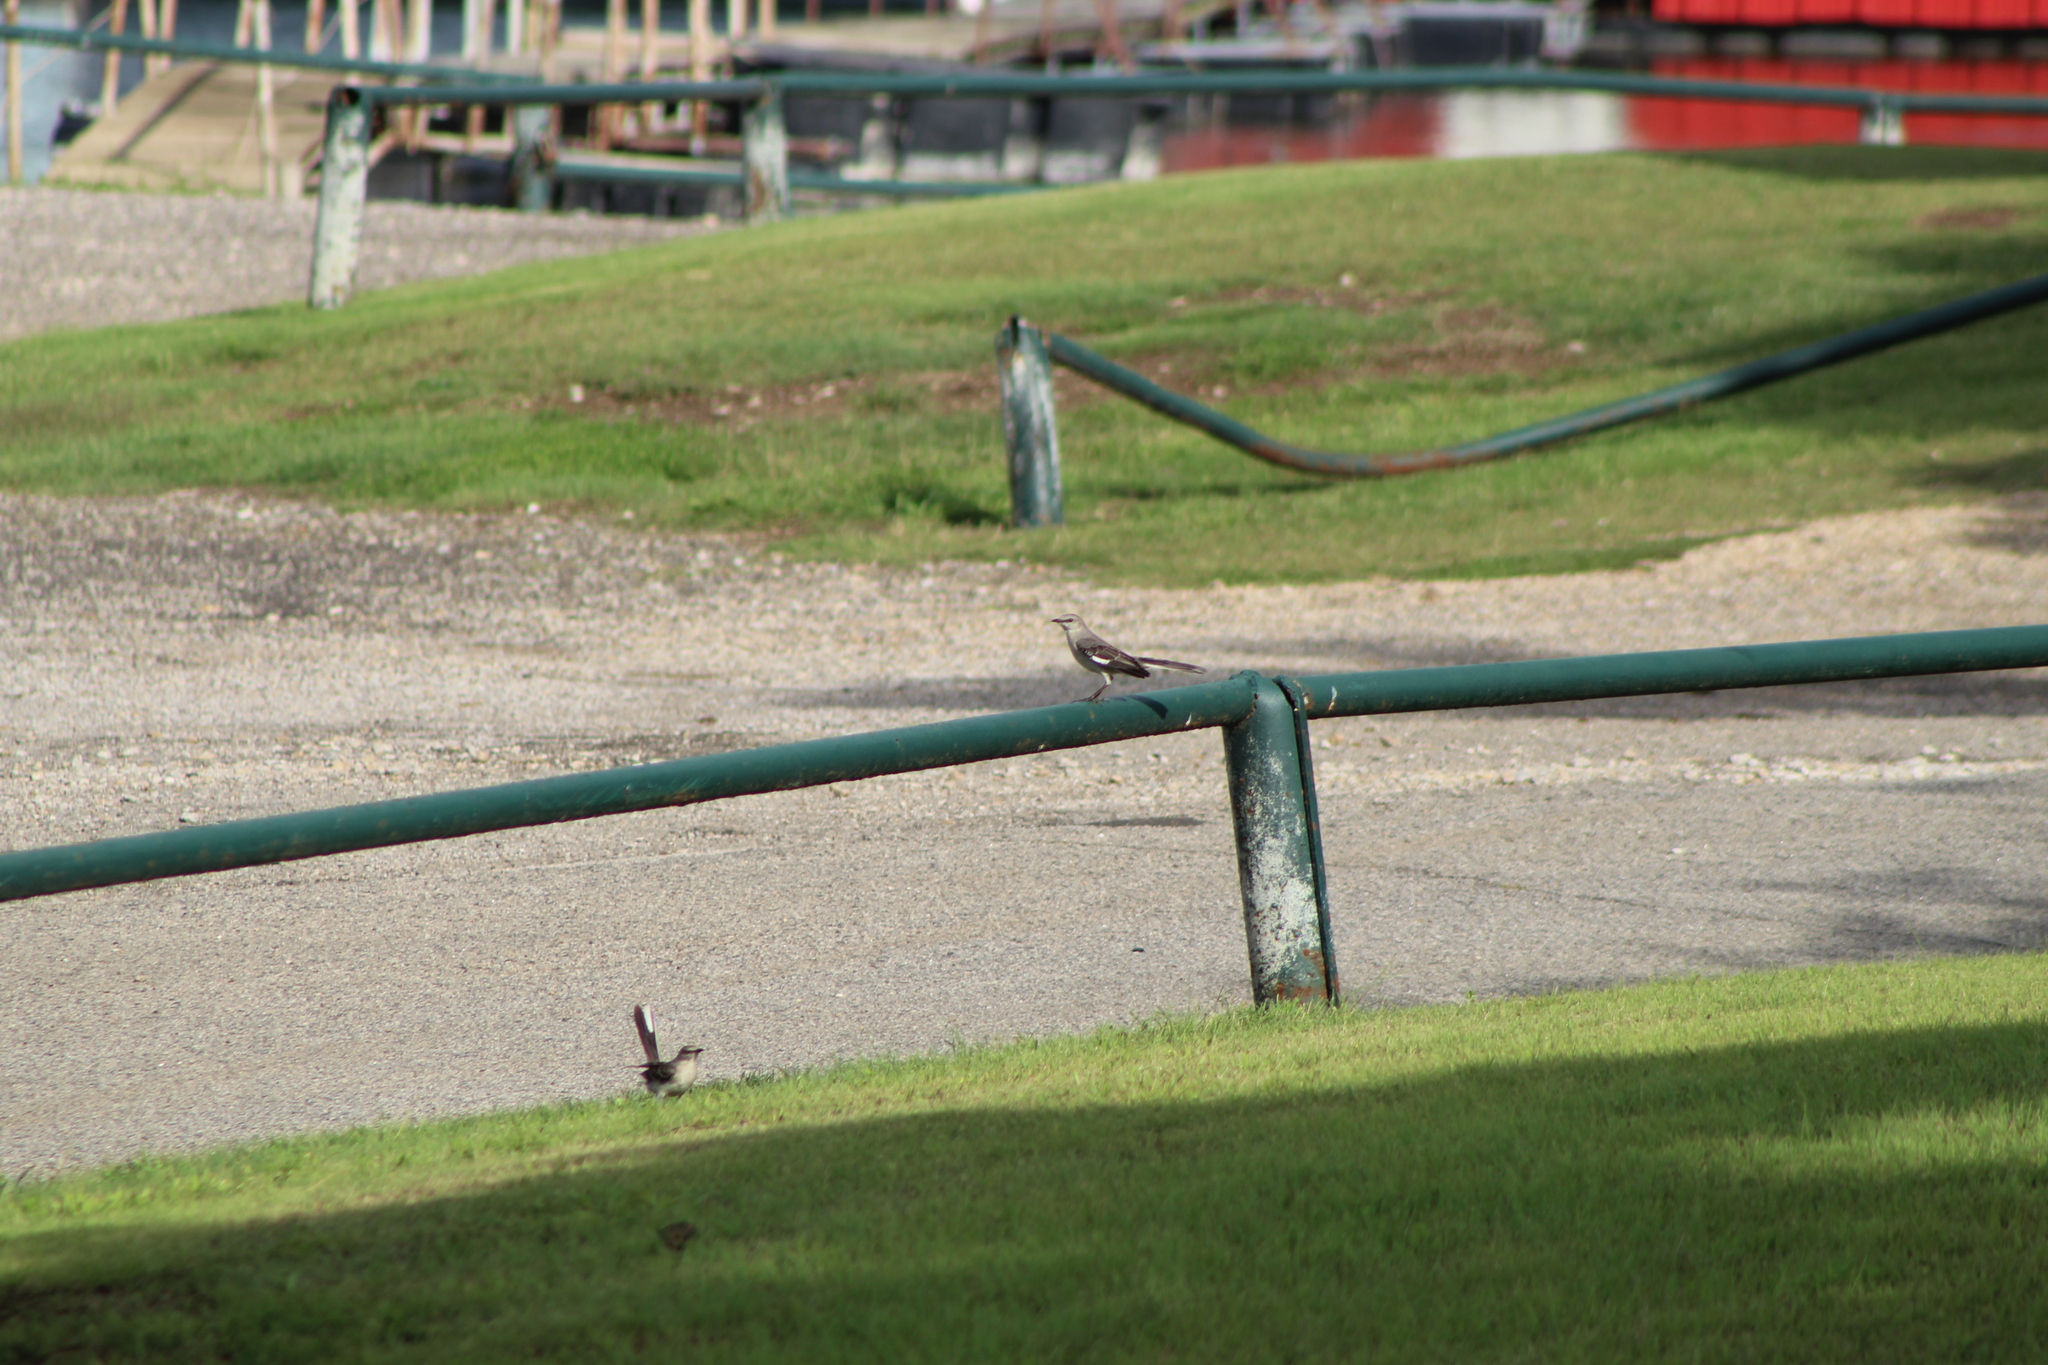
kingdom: Animalia
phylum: Chordata
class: Aves
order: Passeriformes
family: Mimidae
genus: Mimus
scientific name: Mimus polyglottos
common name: Northern mockingbird
